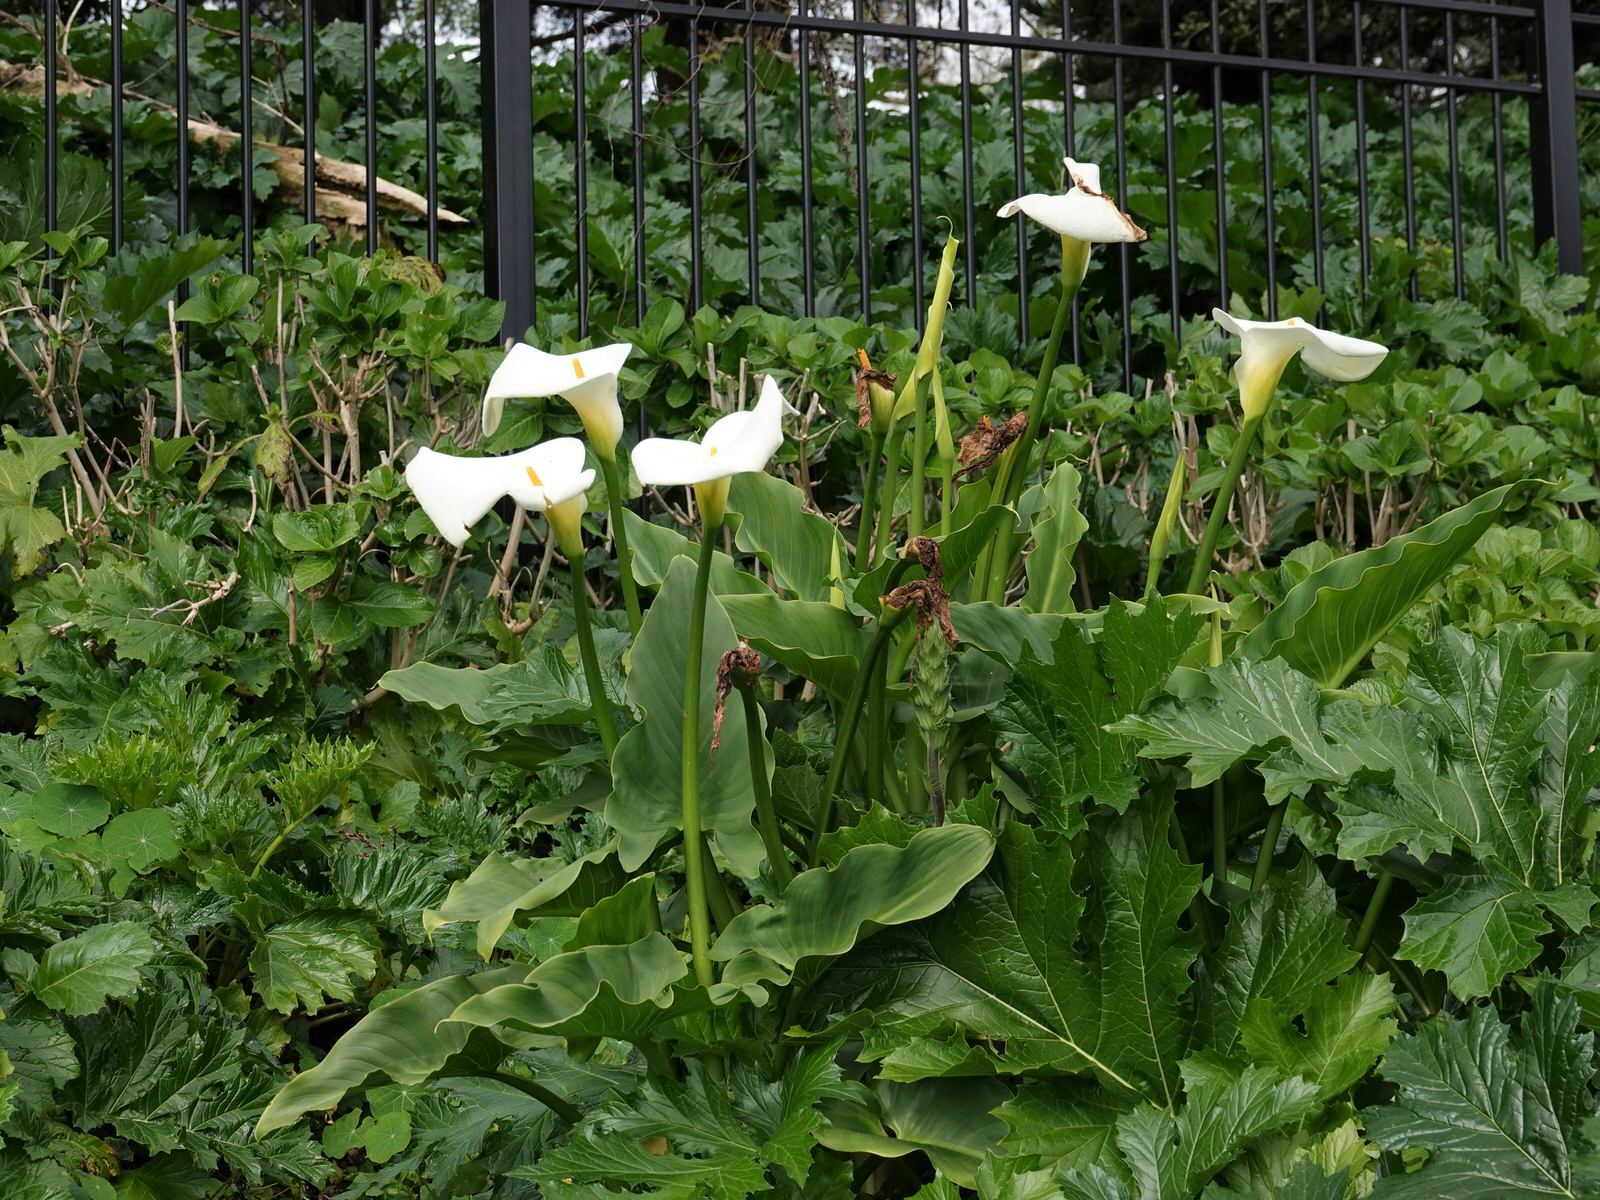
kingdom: Plantae
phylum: Tracheophyta
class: Liliopsida
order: Alismatales
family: Araceae
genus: Zantedeschia
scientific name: Zantedeschia aethiopica
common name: Altar-lily
